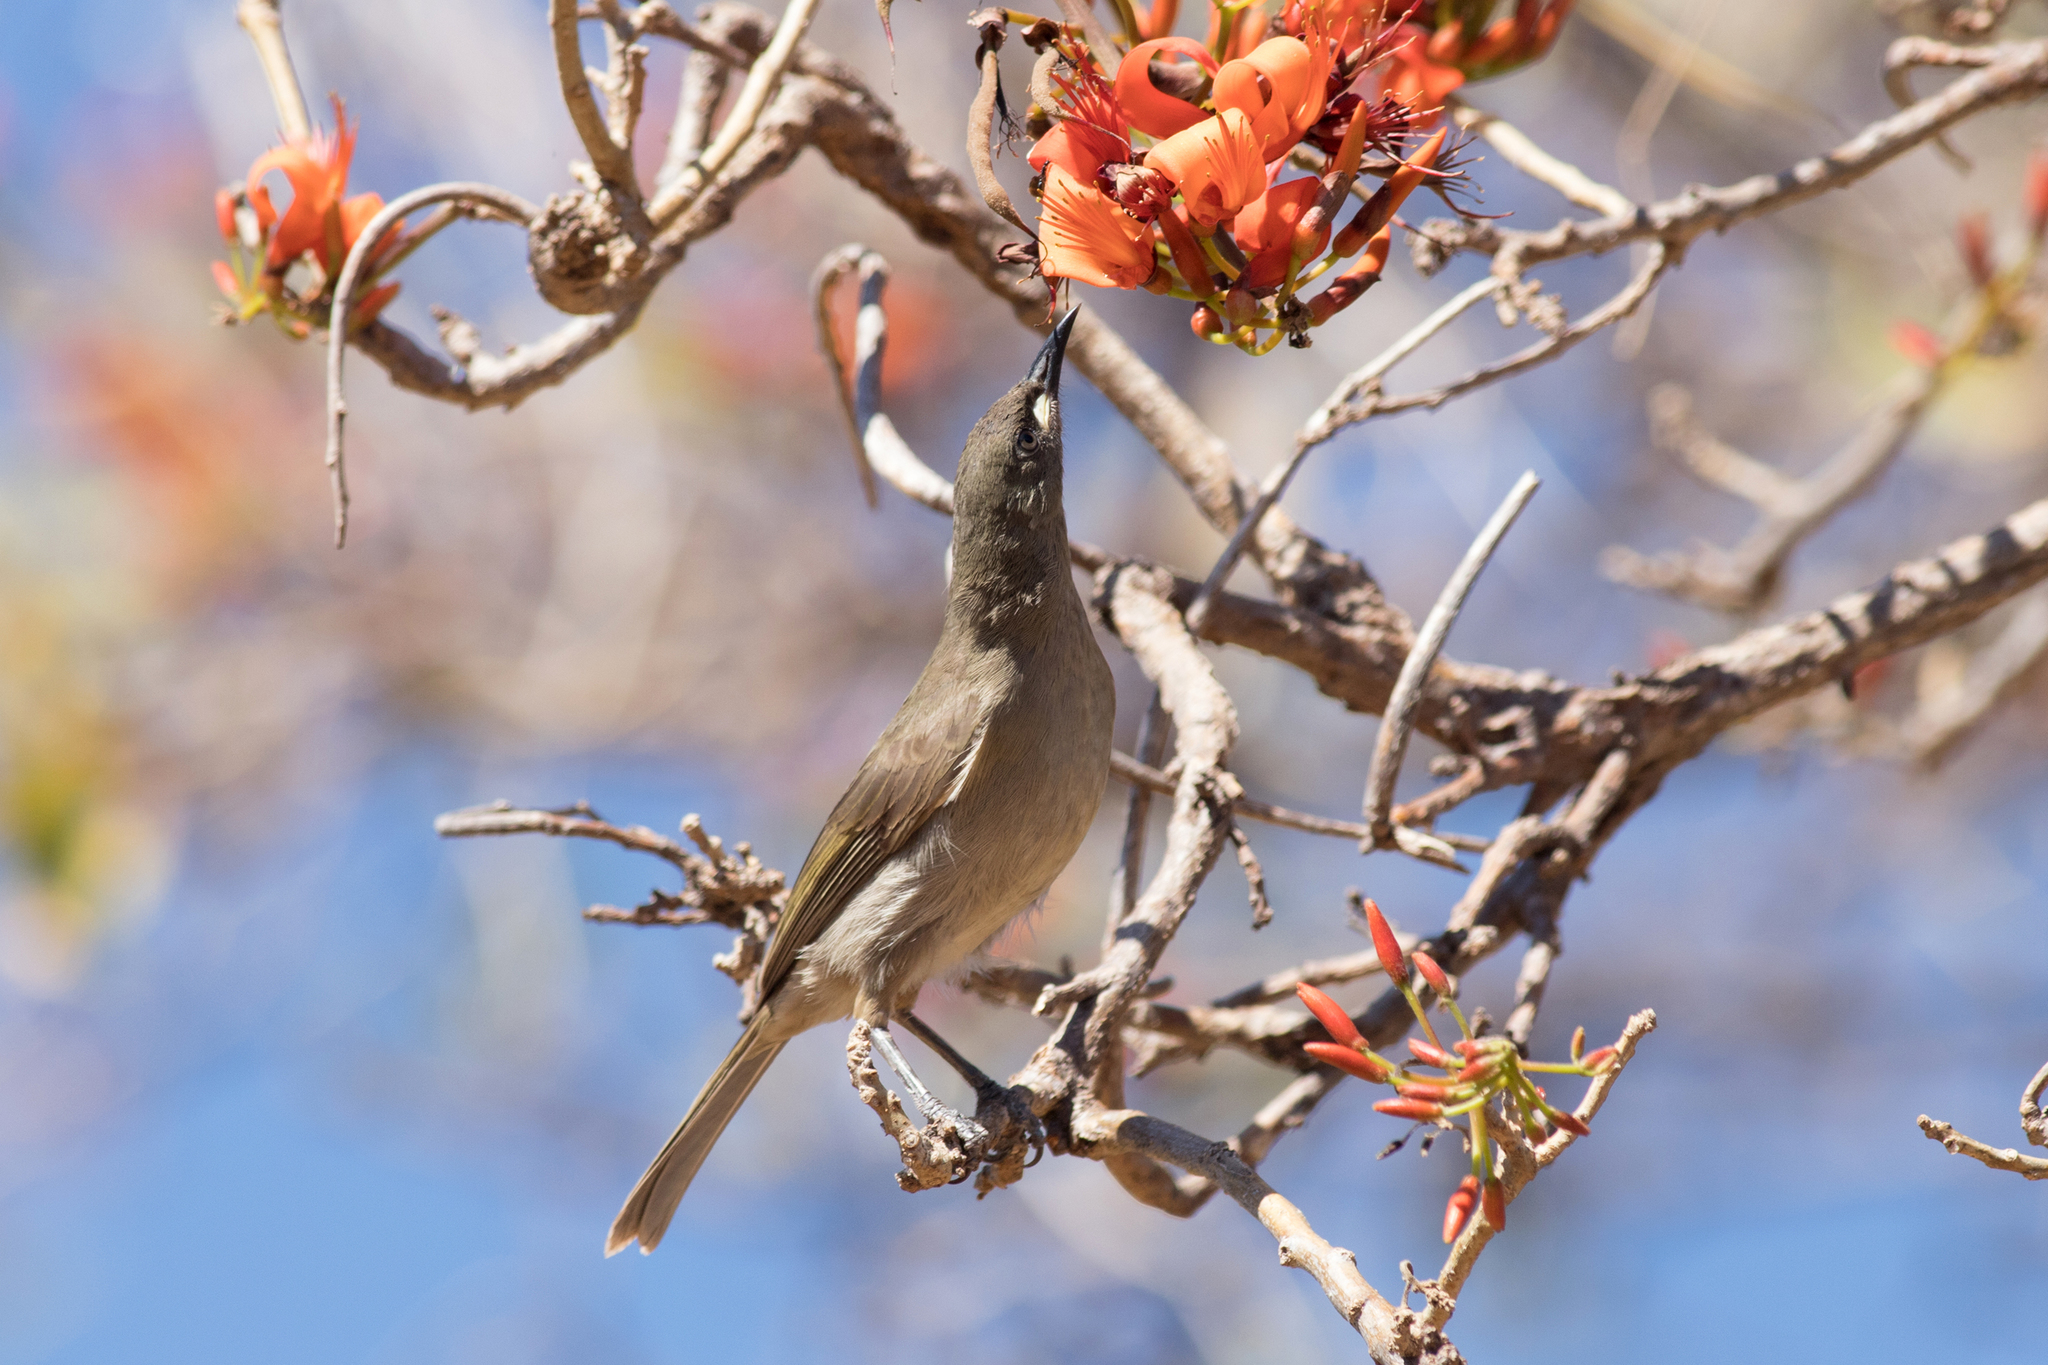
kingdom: Animalia
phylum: Chordata
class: Aves
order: Passeriformes
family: Meliphagidae
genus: Stomiopera
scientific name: Stomiopera unicolor
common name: White-gaped honeyeater
